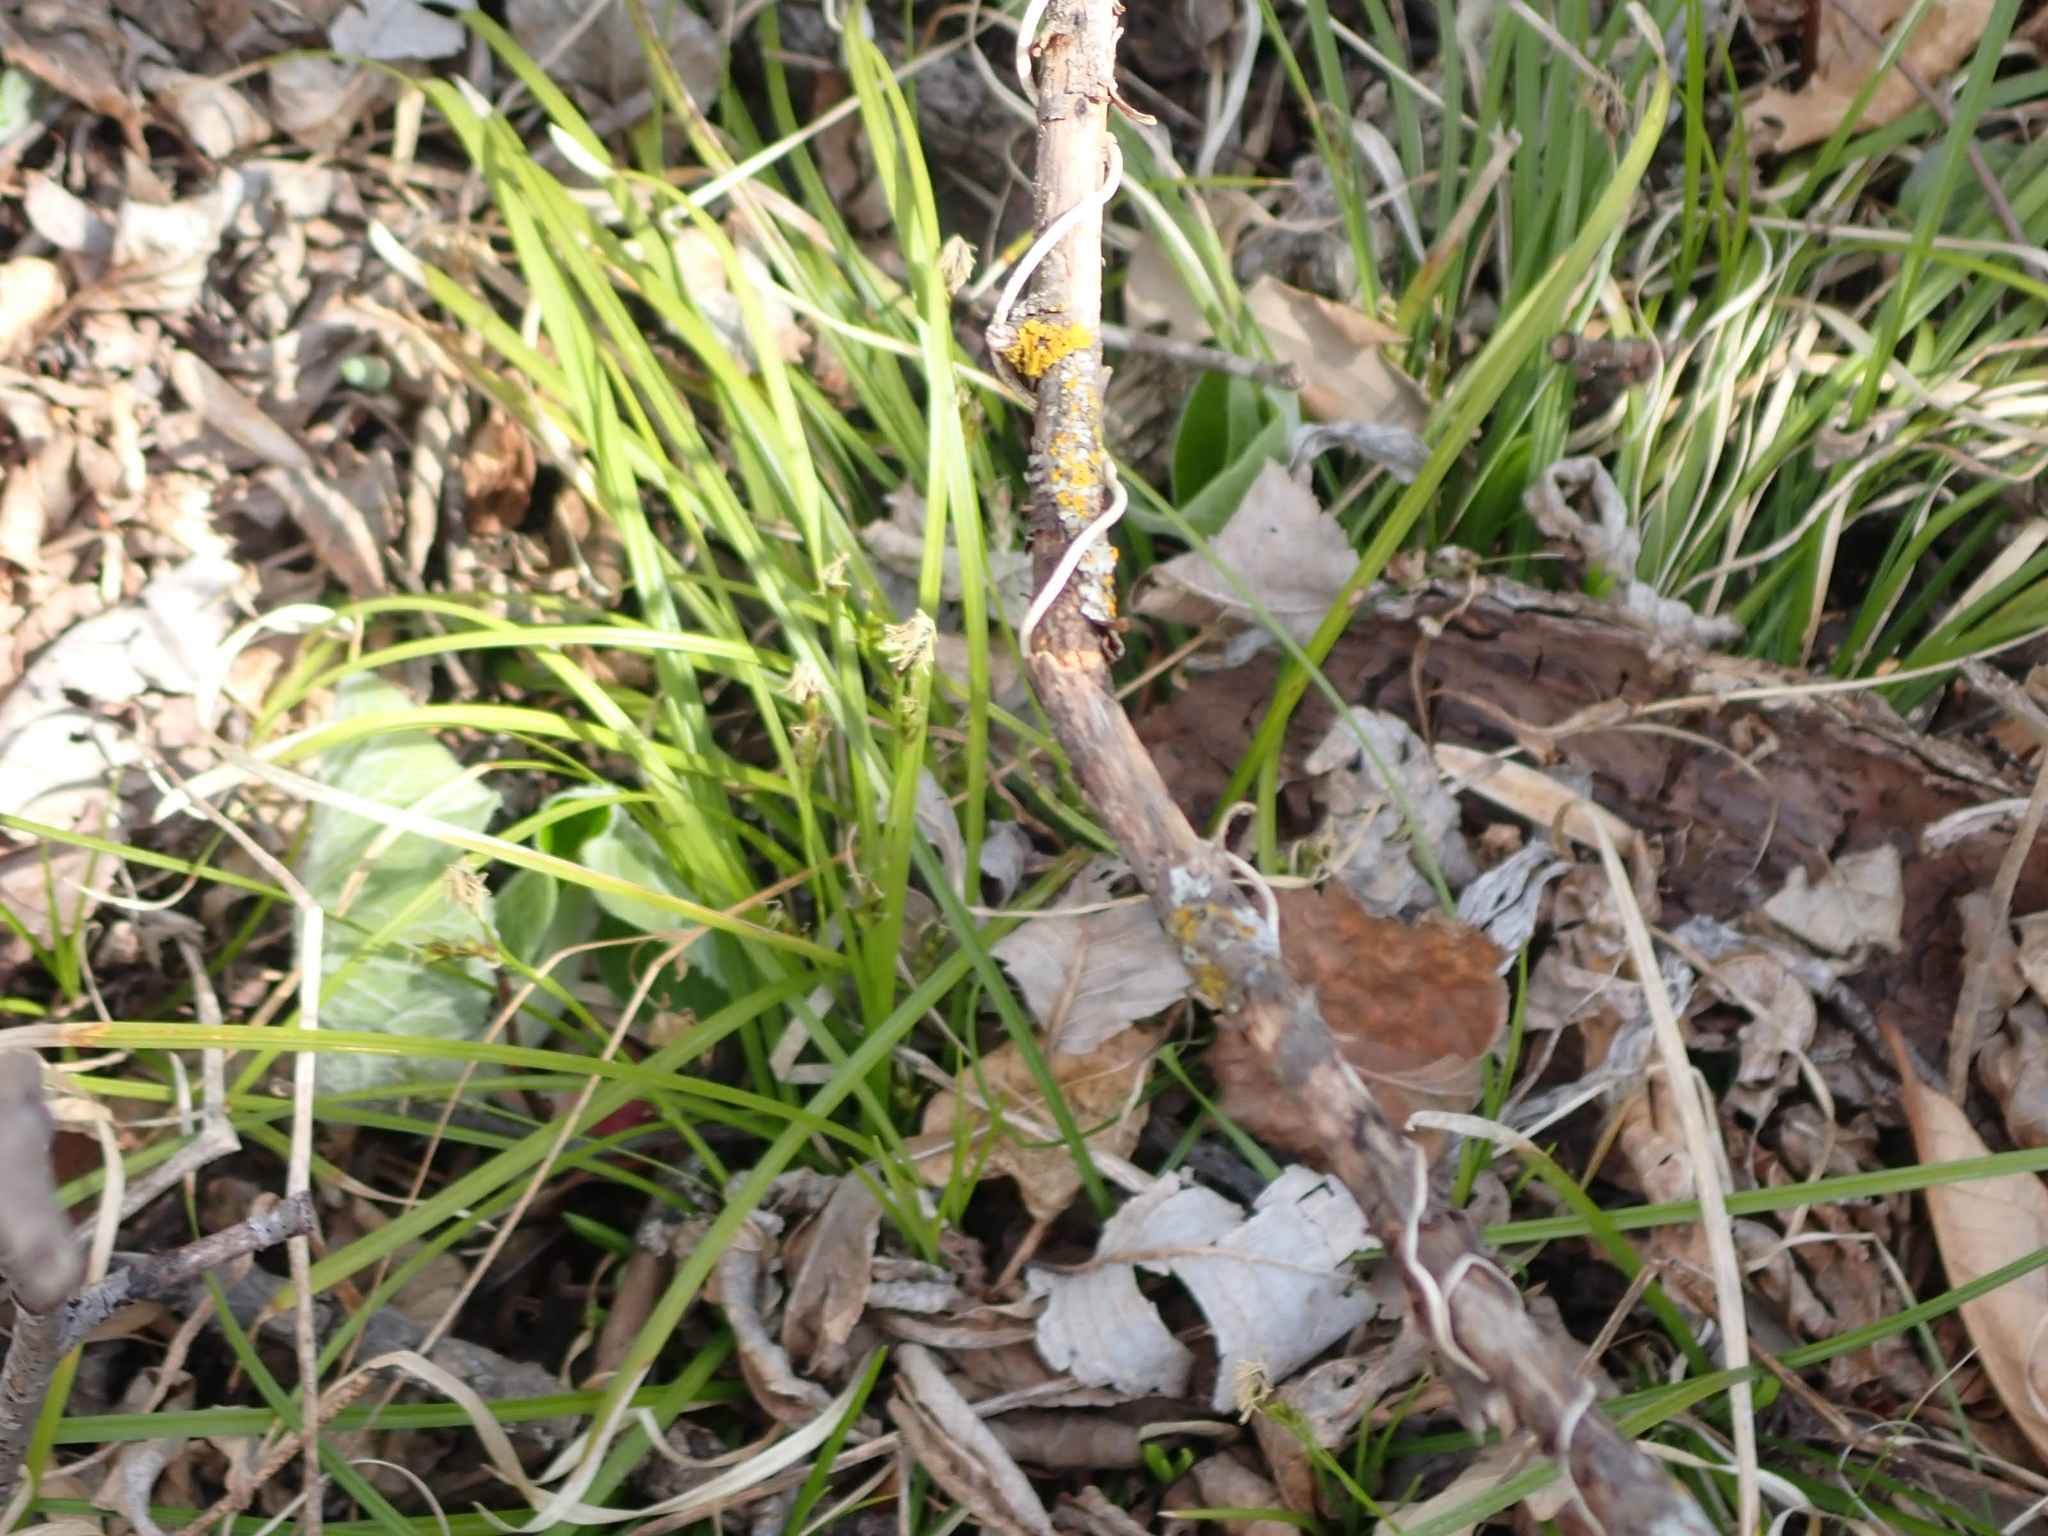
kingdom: Plantae
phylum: Tracheophyta
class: Liliopsida
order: Poales
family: Cyperaceae
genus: Carex
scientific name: Carex pedunculata
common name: Pedunculate sedge
